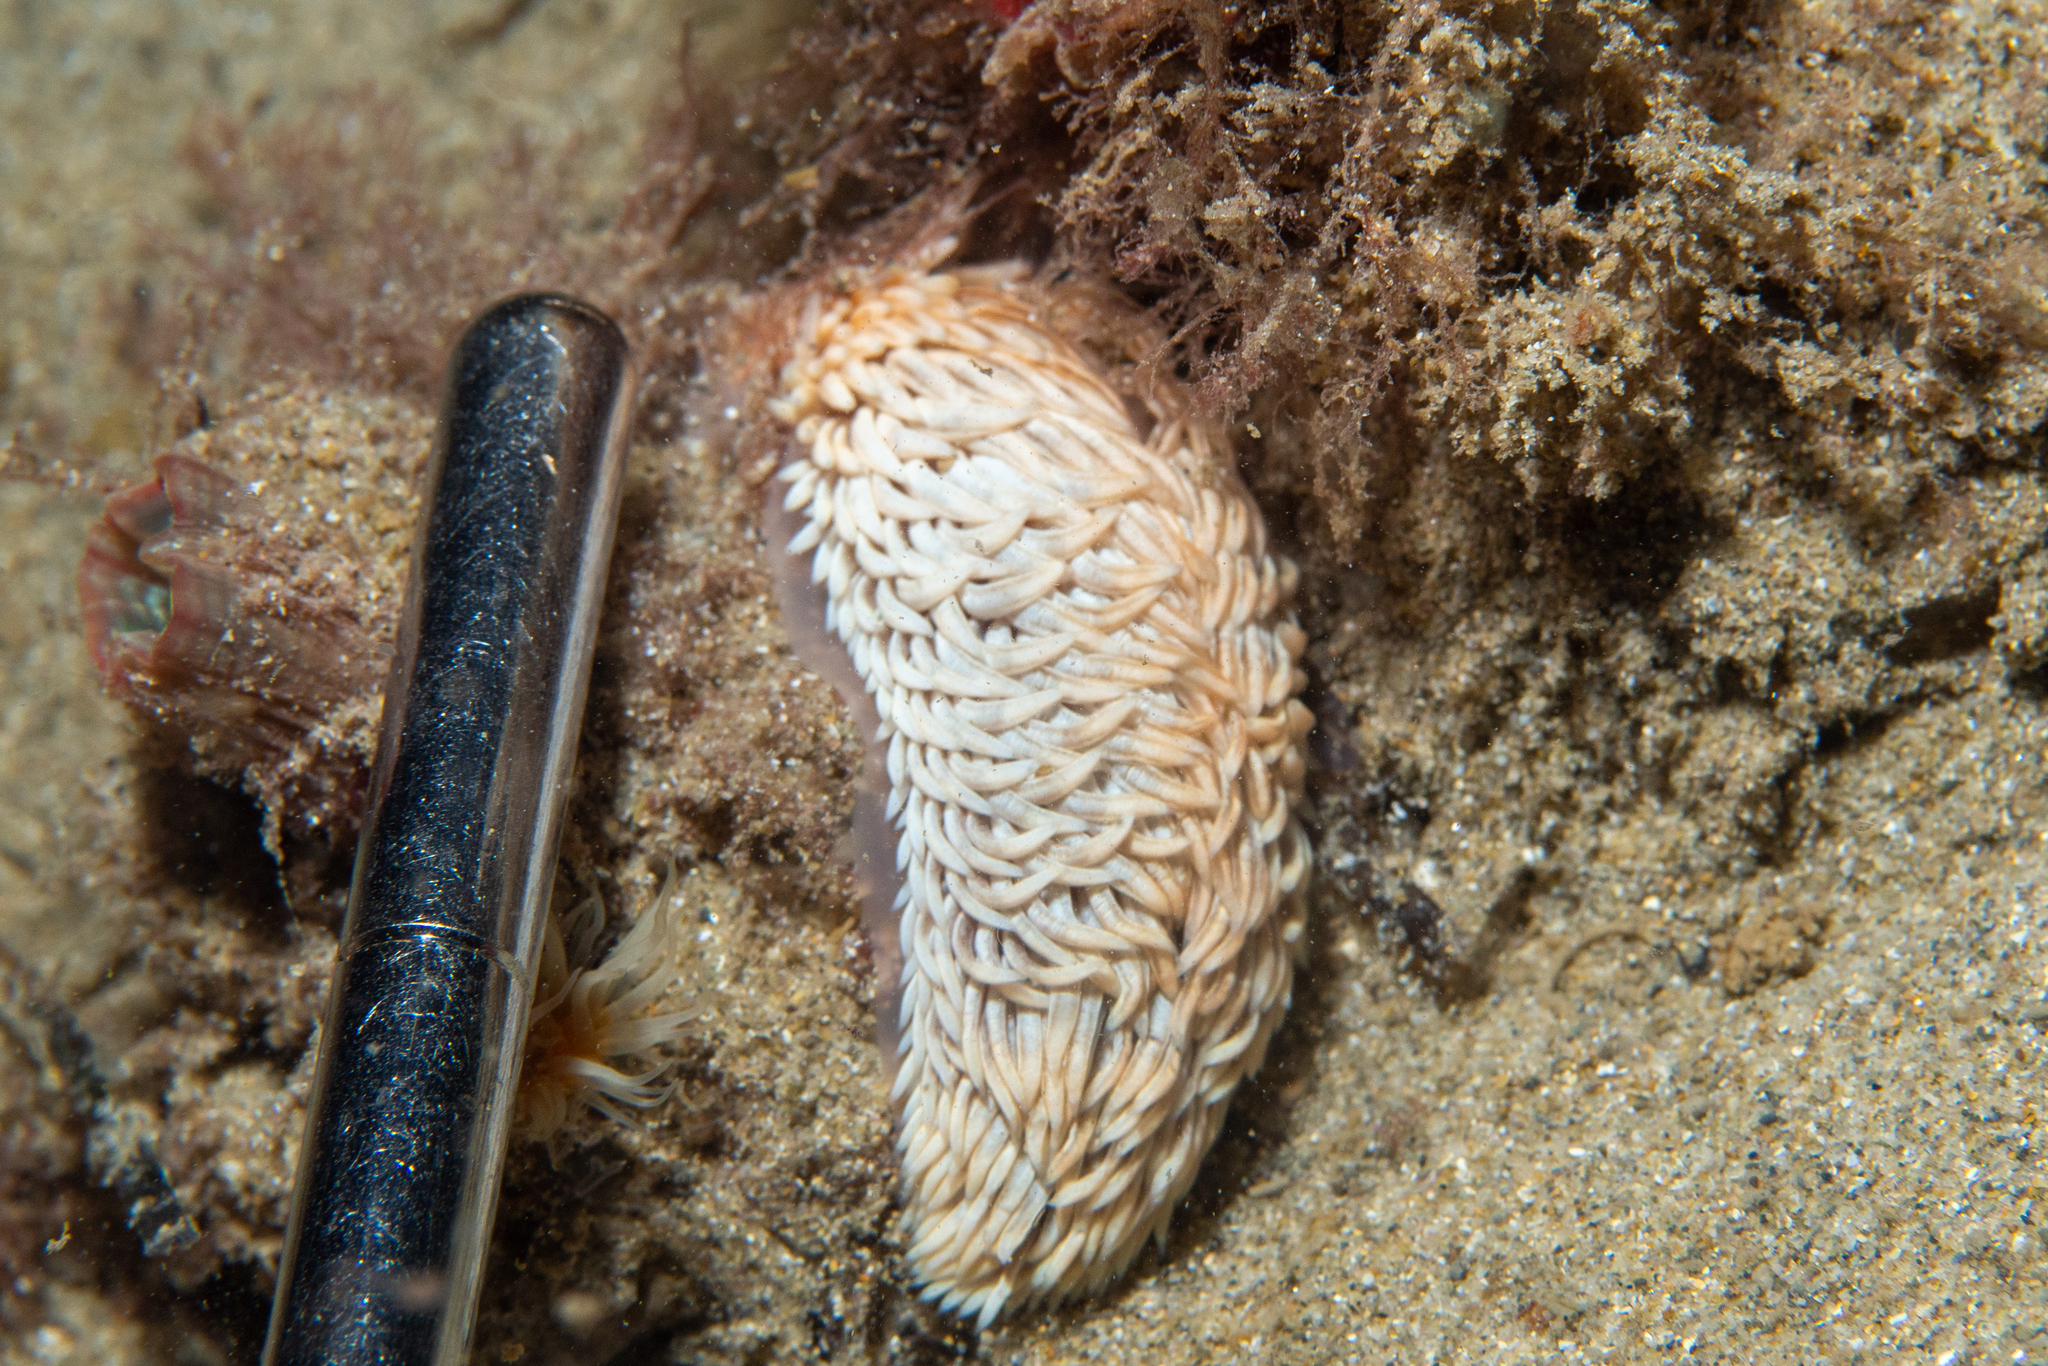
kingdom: Animalia
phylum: Mollusca
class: Gastropoda
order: Nudibranchia
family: Aeolidiidae
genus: Aeolidiella
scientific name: Aeolidiella drusilla
